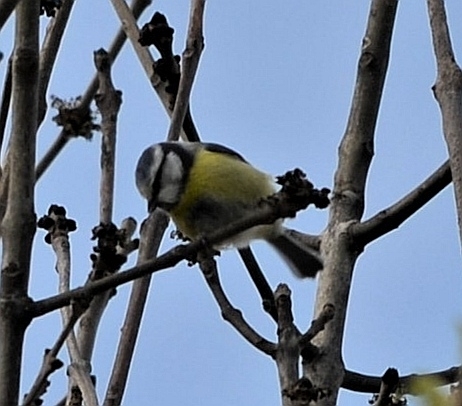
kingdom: Animalia
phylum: Chordata
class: Aves
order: Passeriformes
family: Paridae
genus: Cyanistes
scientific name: Cyanistes caeruleus
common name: Eurasian blue tit
